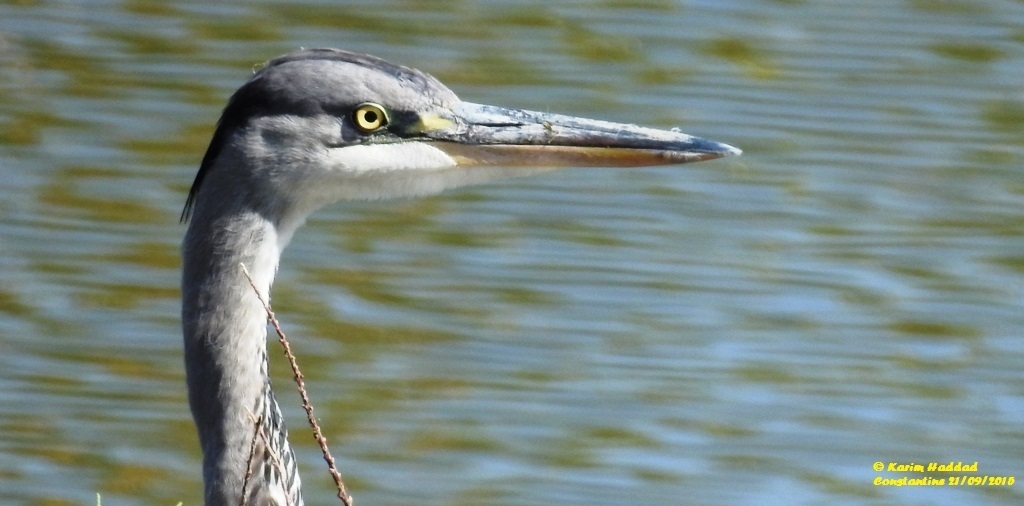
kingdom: Animalia
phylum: Chordata
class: Aves
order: Pelecaniformes
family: Ardeidae
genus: Ardea
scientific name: Ardea cinerea
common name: Grey heron
